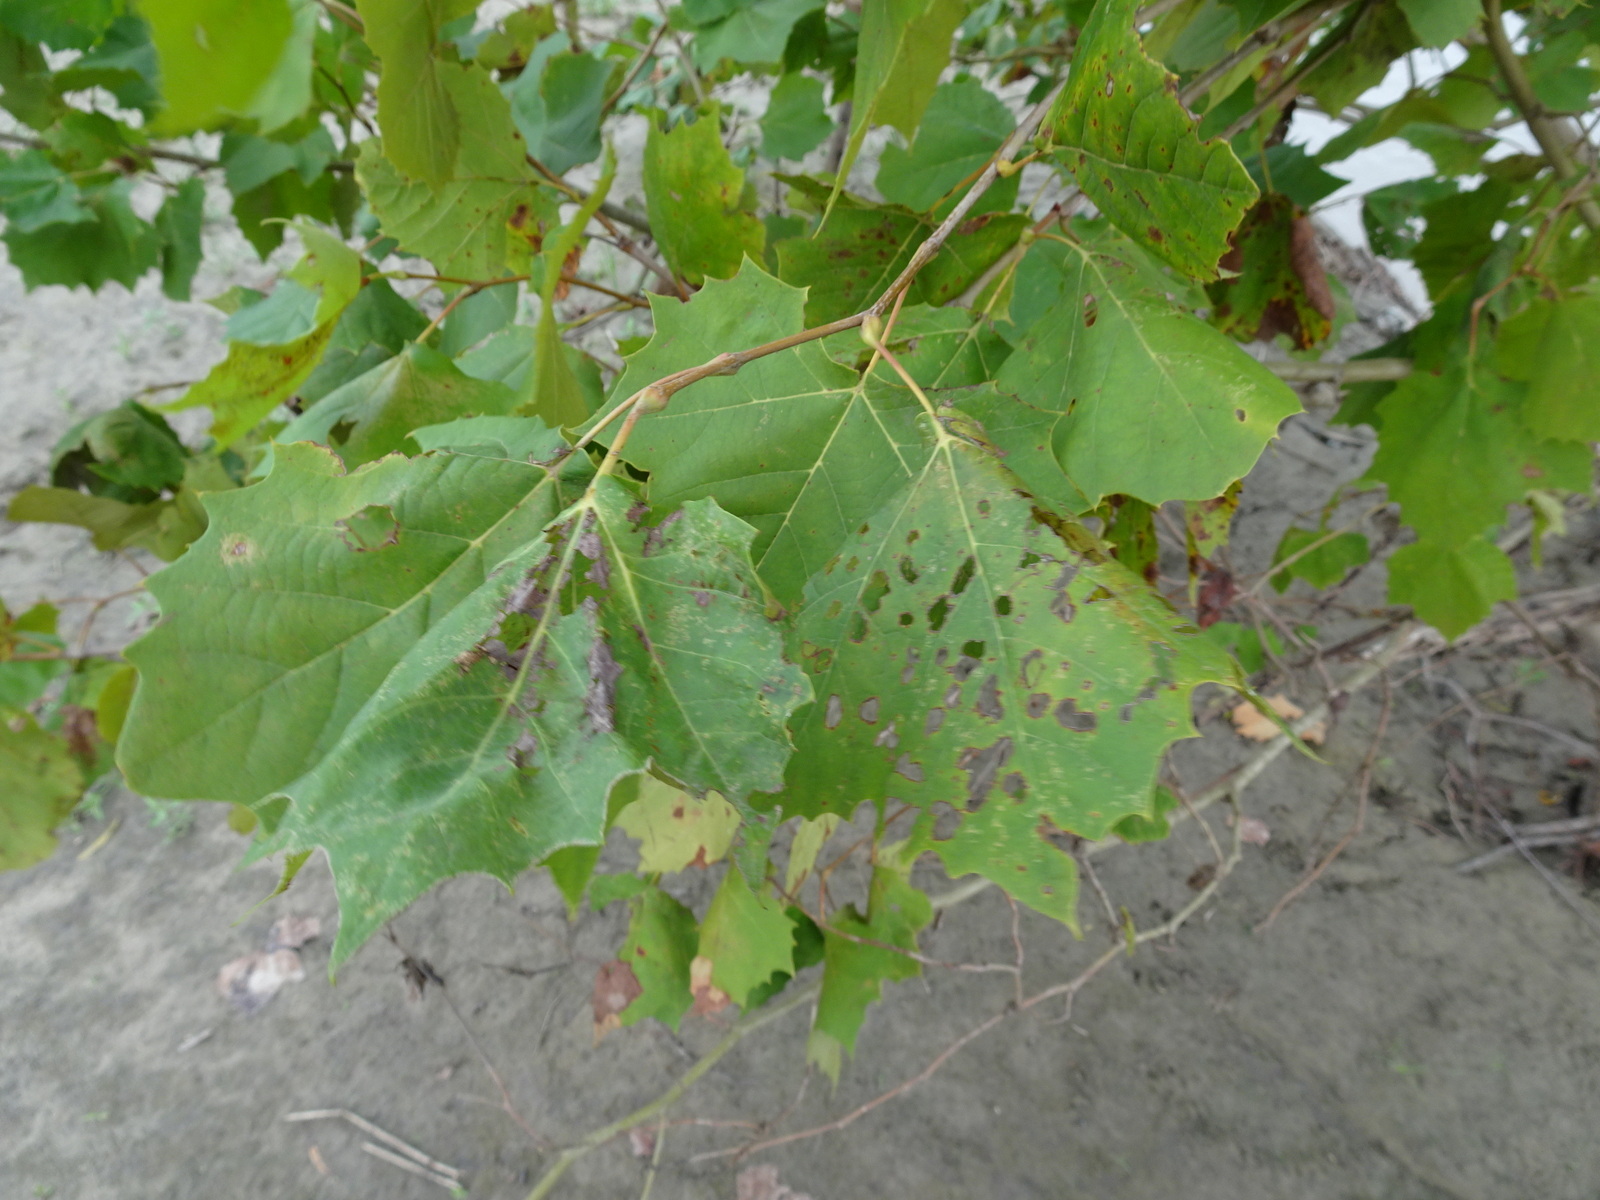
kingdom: Plantae
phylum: Tracheophyta
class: Magnoliopsida
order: Proteales
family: Platanaceae
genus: Platanus
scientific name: Platanus occidentalis
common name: American sycamore
